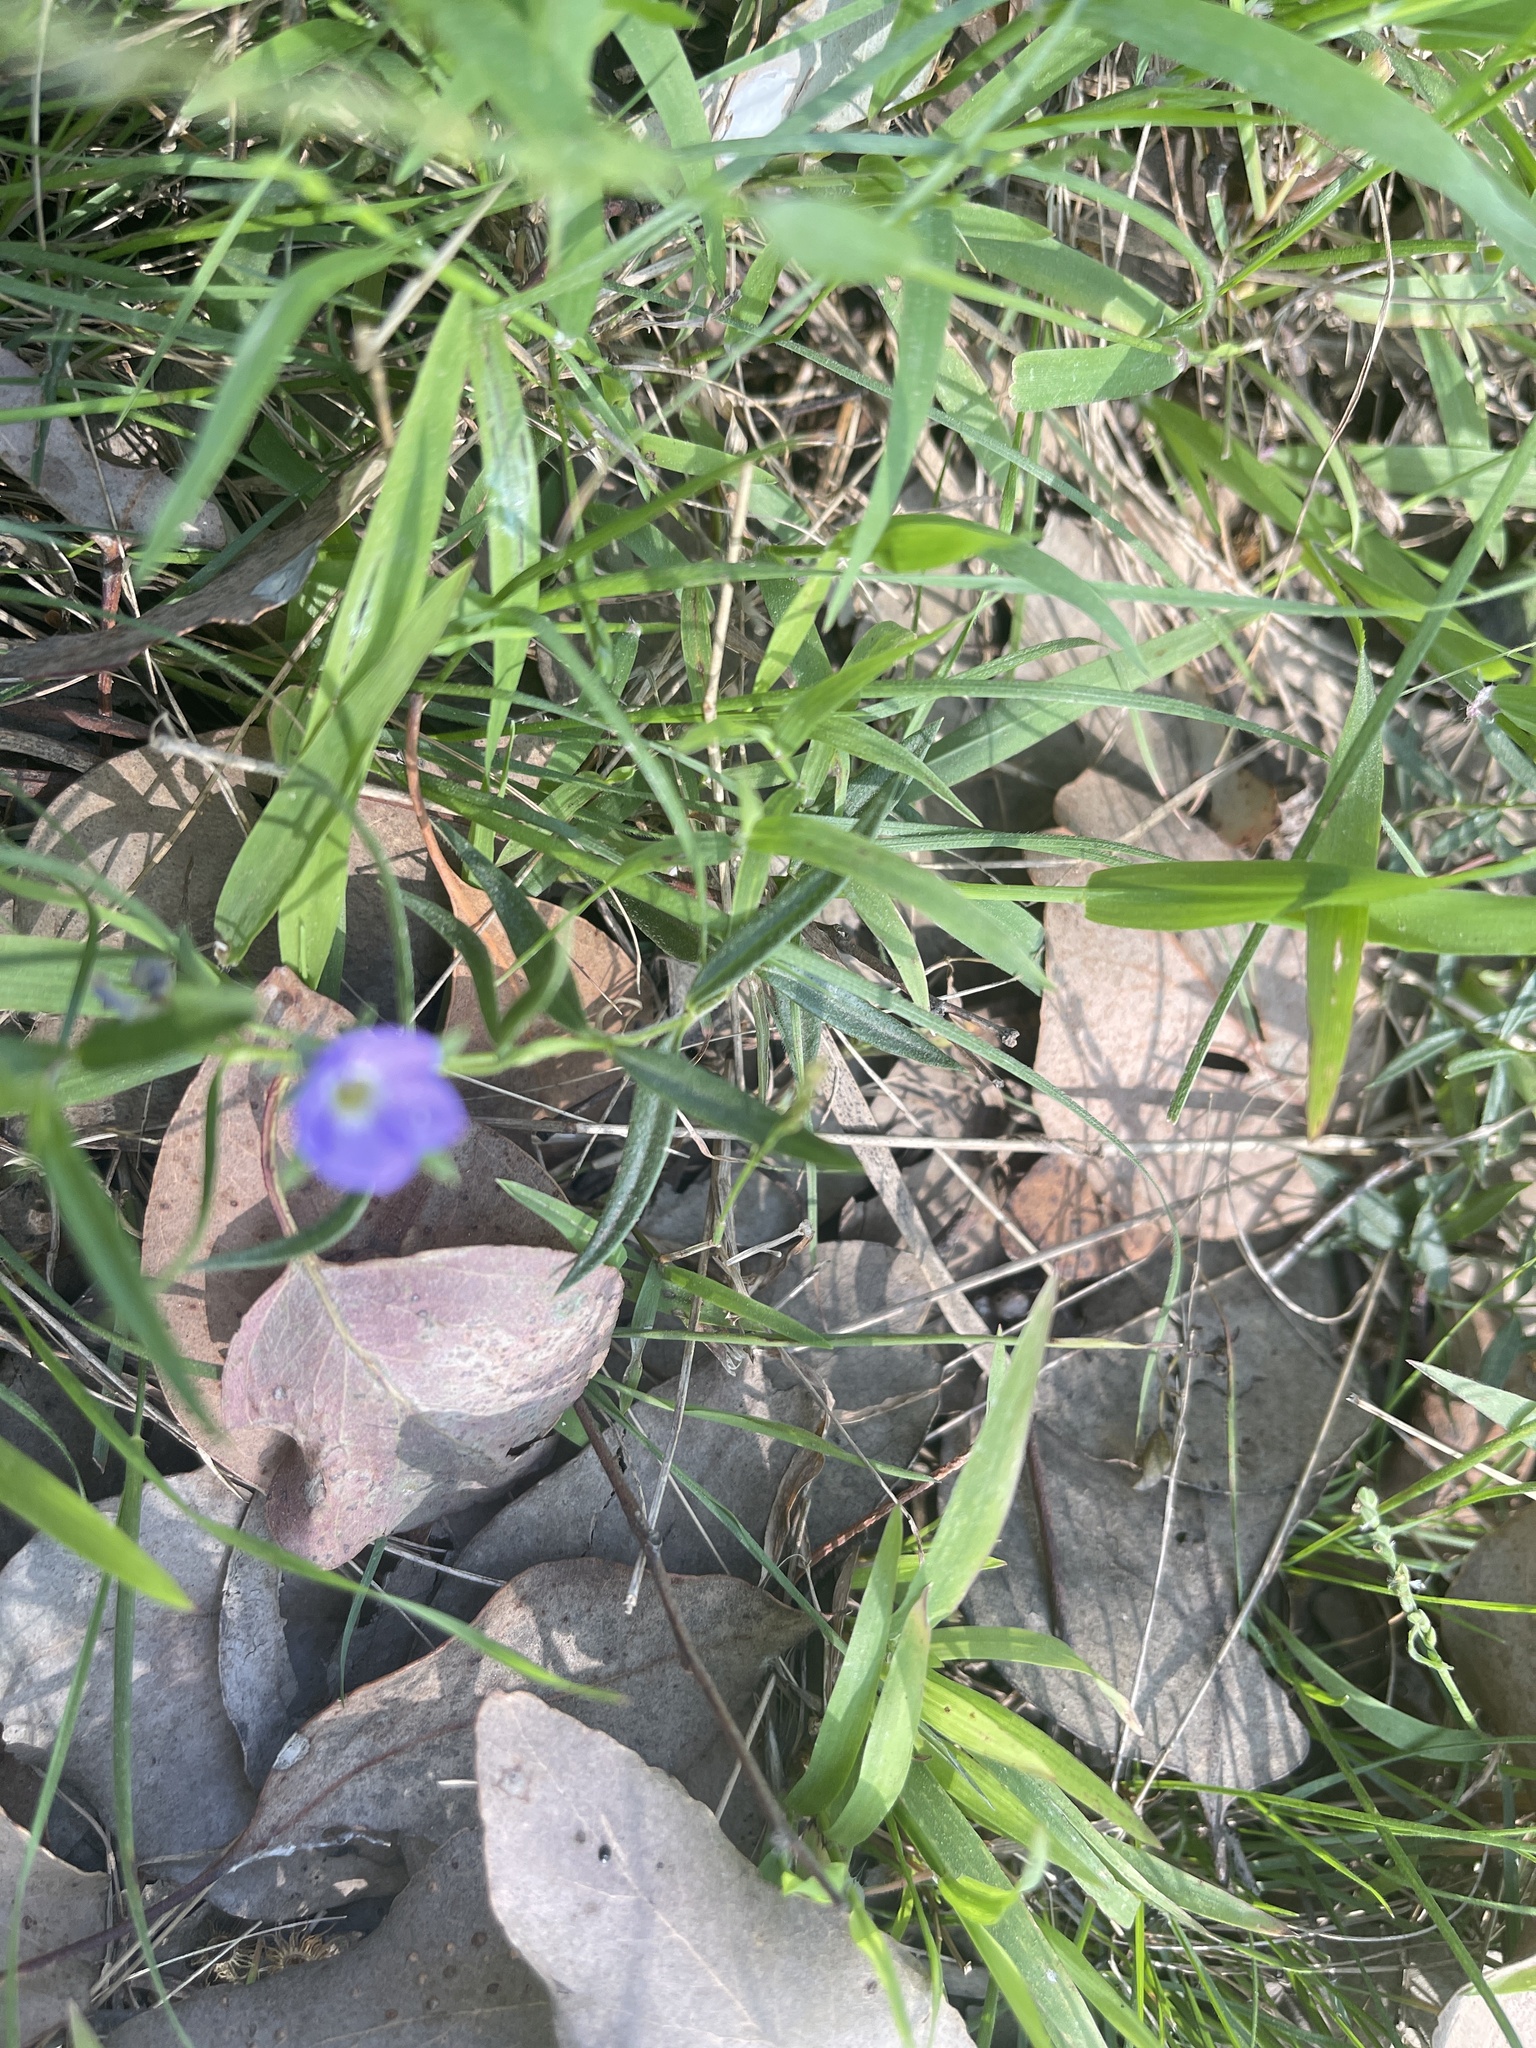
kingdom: Plantae
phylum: Tracheophyta
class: Magnoliopsida
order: Lamiales
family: Plantaginaceae
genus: Veronica
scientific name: Veronica gracilis
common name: Slender speedwell
